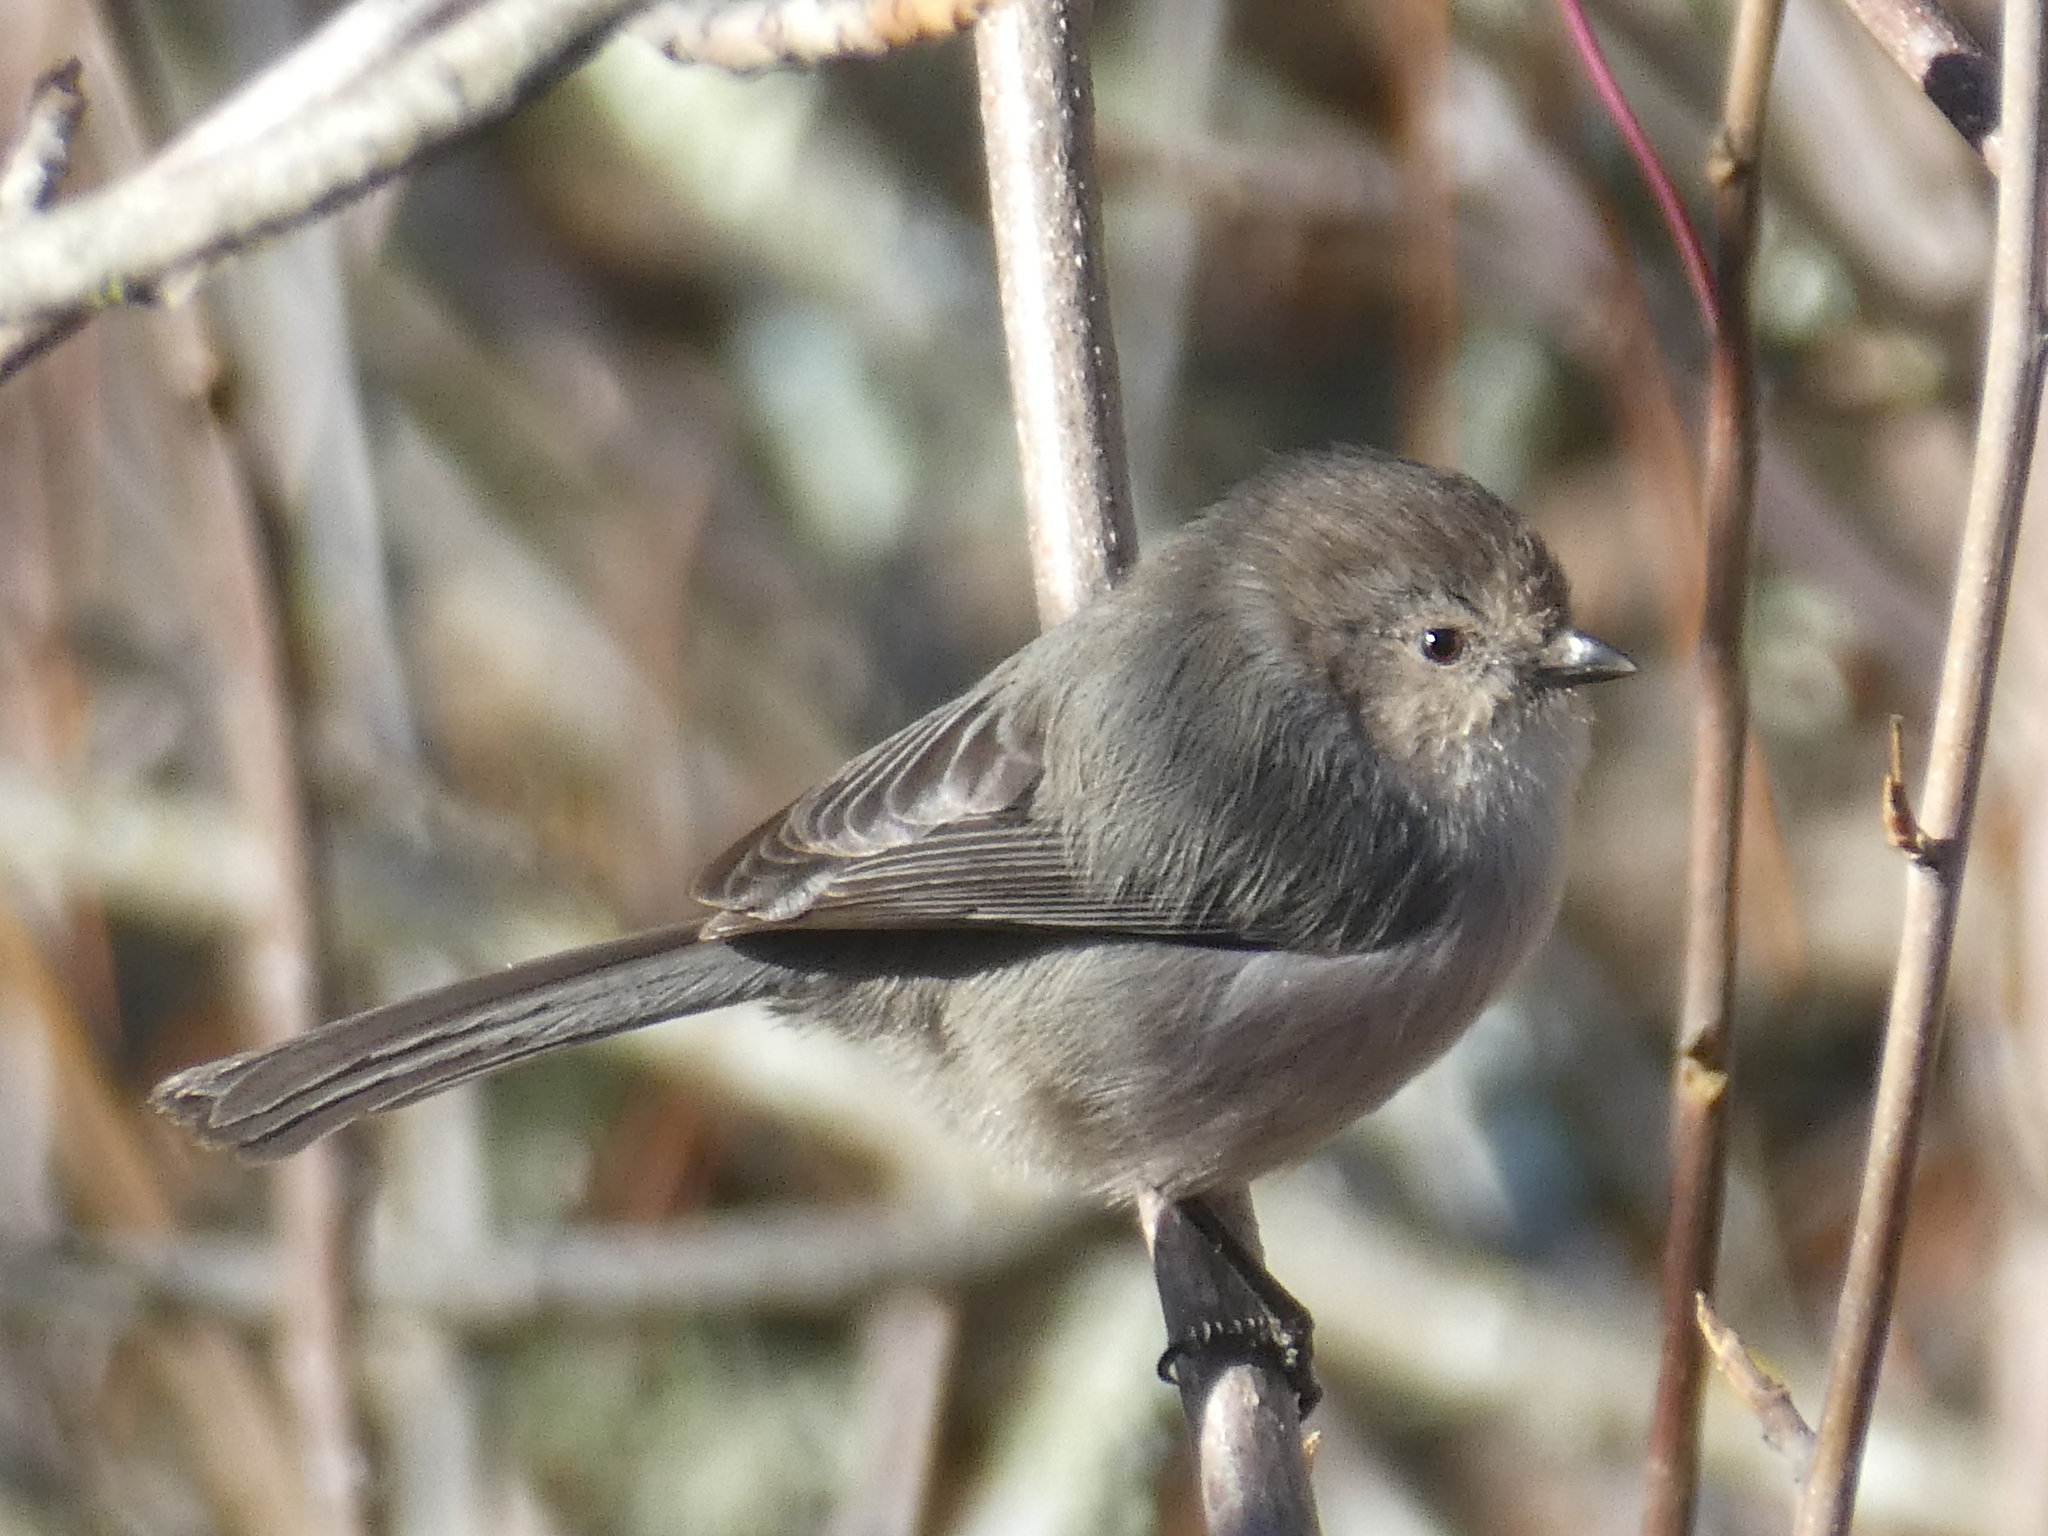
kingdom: Animalia
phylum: Chordata
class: Aves
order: Passeriformes
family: Aegithalidae
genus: Psaltriparus
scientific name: Psaltriparus minimus
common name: American bushtit
